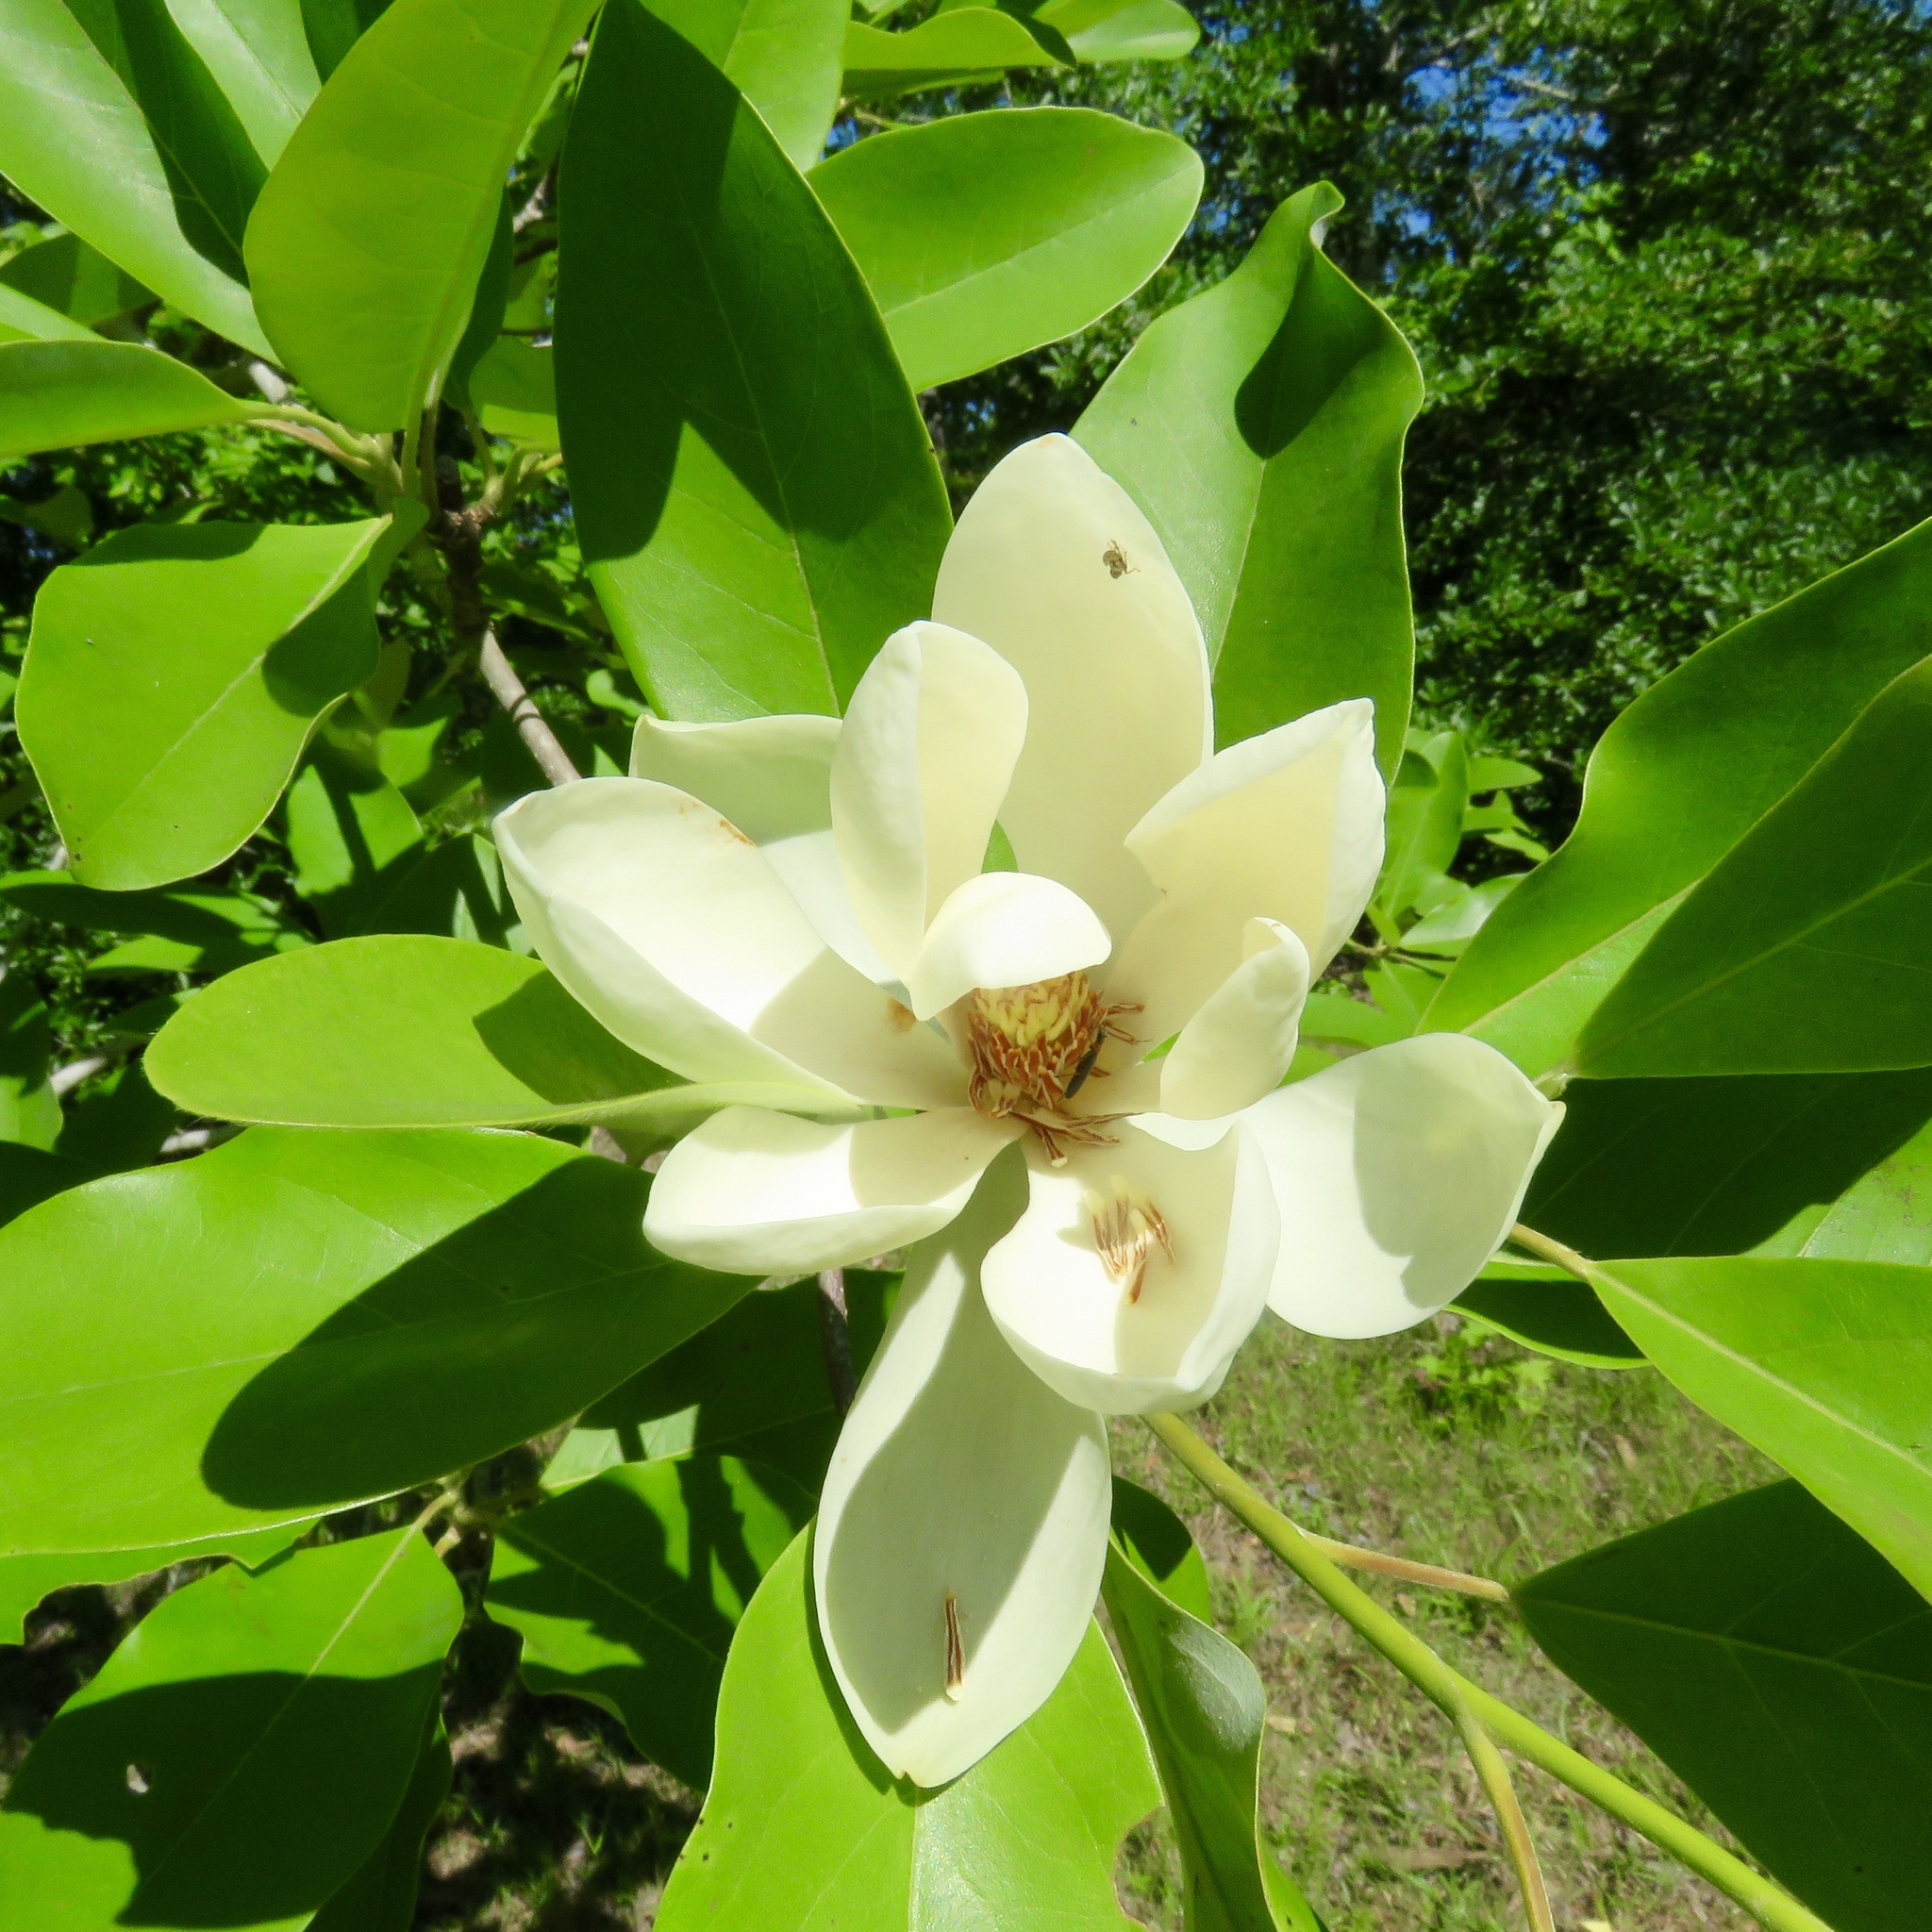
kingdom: Plantae
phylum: Tracheophyta
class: Magnoliopsida
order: Magnoliales
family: Magnoliaceae
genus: Magnolia
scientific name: Magnolia virginiana
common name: Swamp bay
